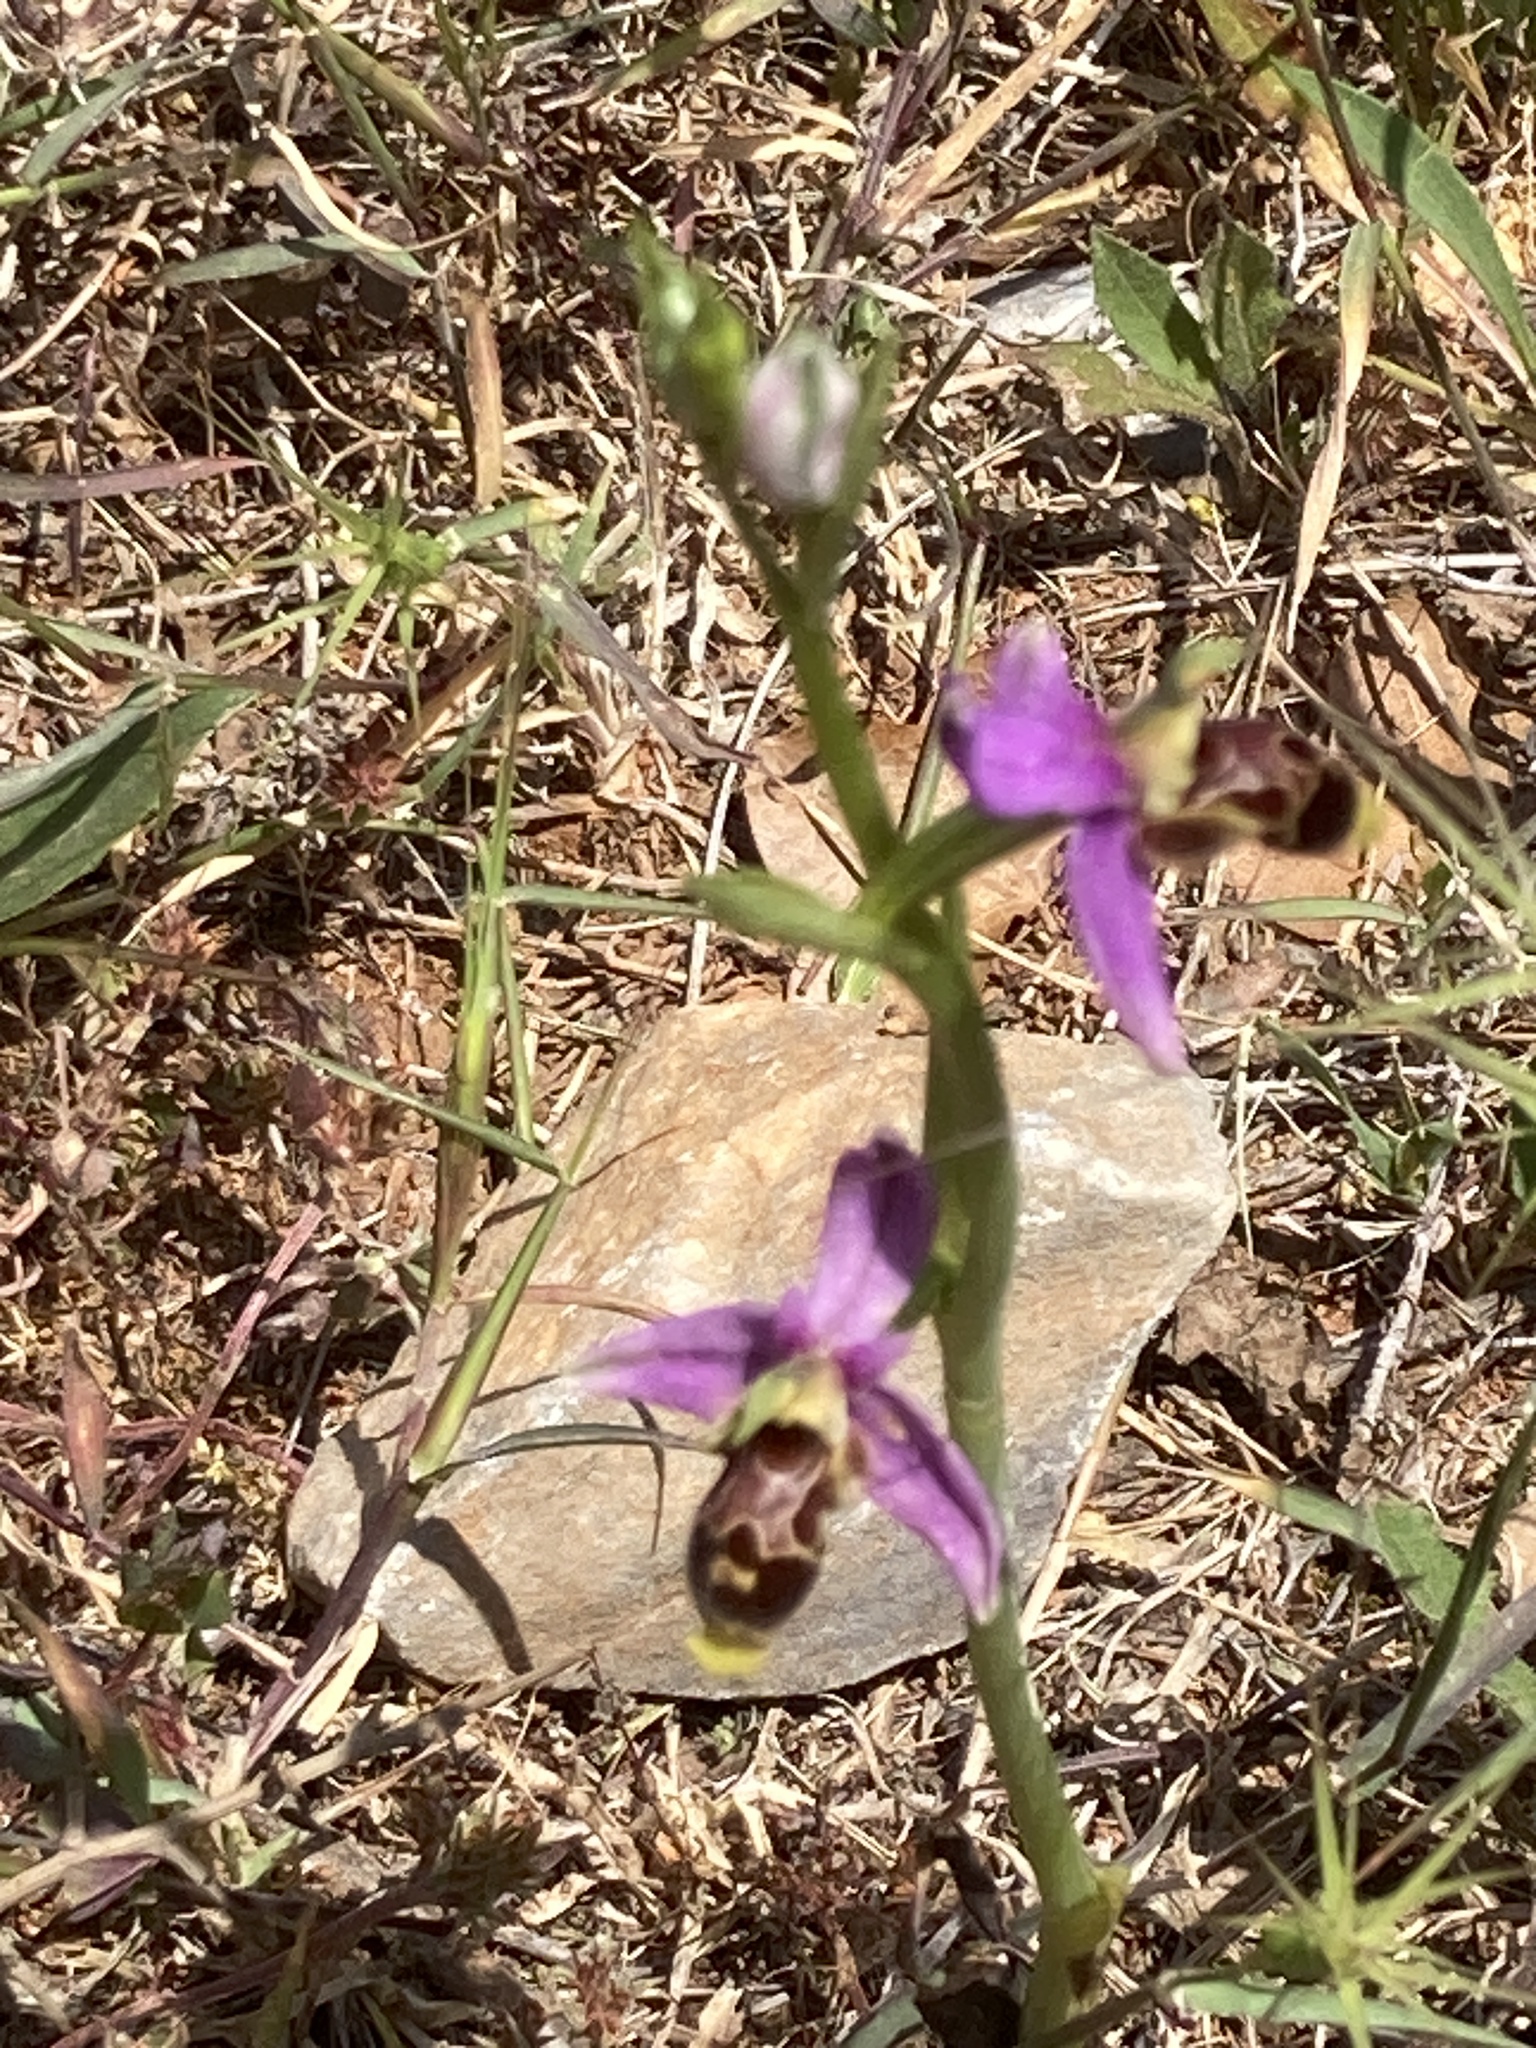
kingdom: Plantae
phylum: Tracheophyta
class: Liliopsida
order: Asparagales
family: Orchidaceae
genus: Ophrys
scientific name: Ophrys scolopax
